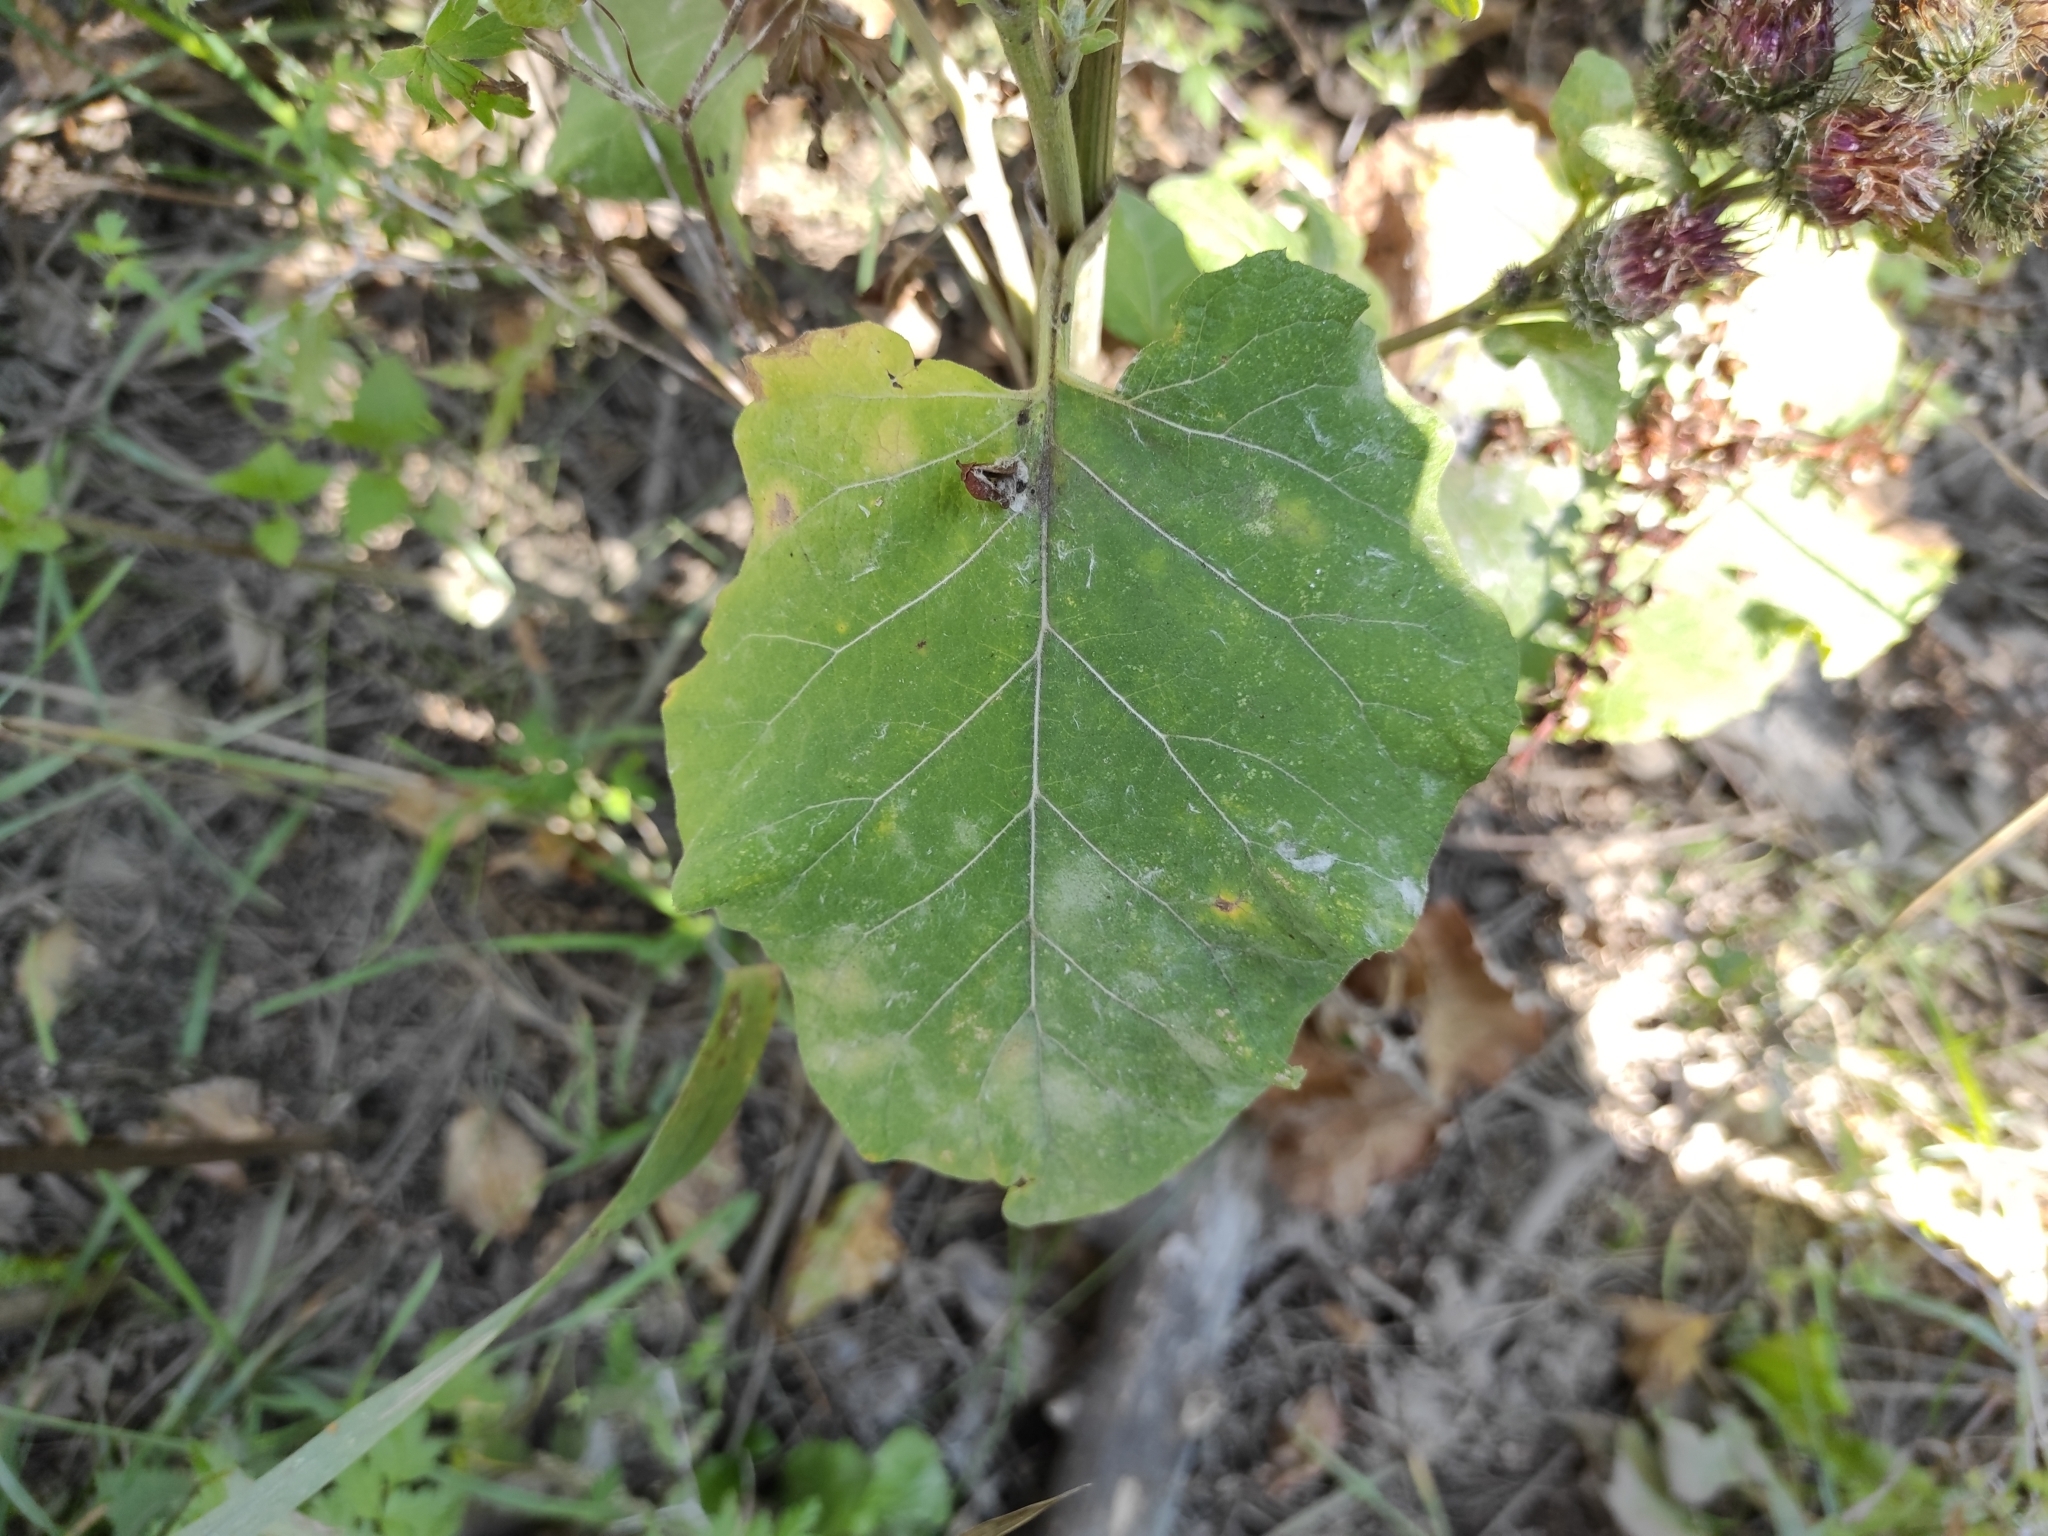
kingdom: Plantae
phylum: Tracheophyta
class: Magnoliopsida
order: Asterales
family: Asteraceae
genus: Arctium
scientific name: Arctium tomentosum
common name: Woolly burdock
